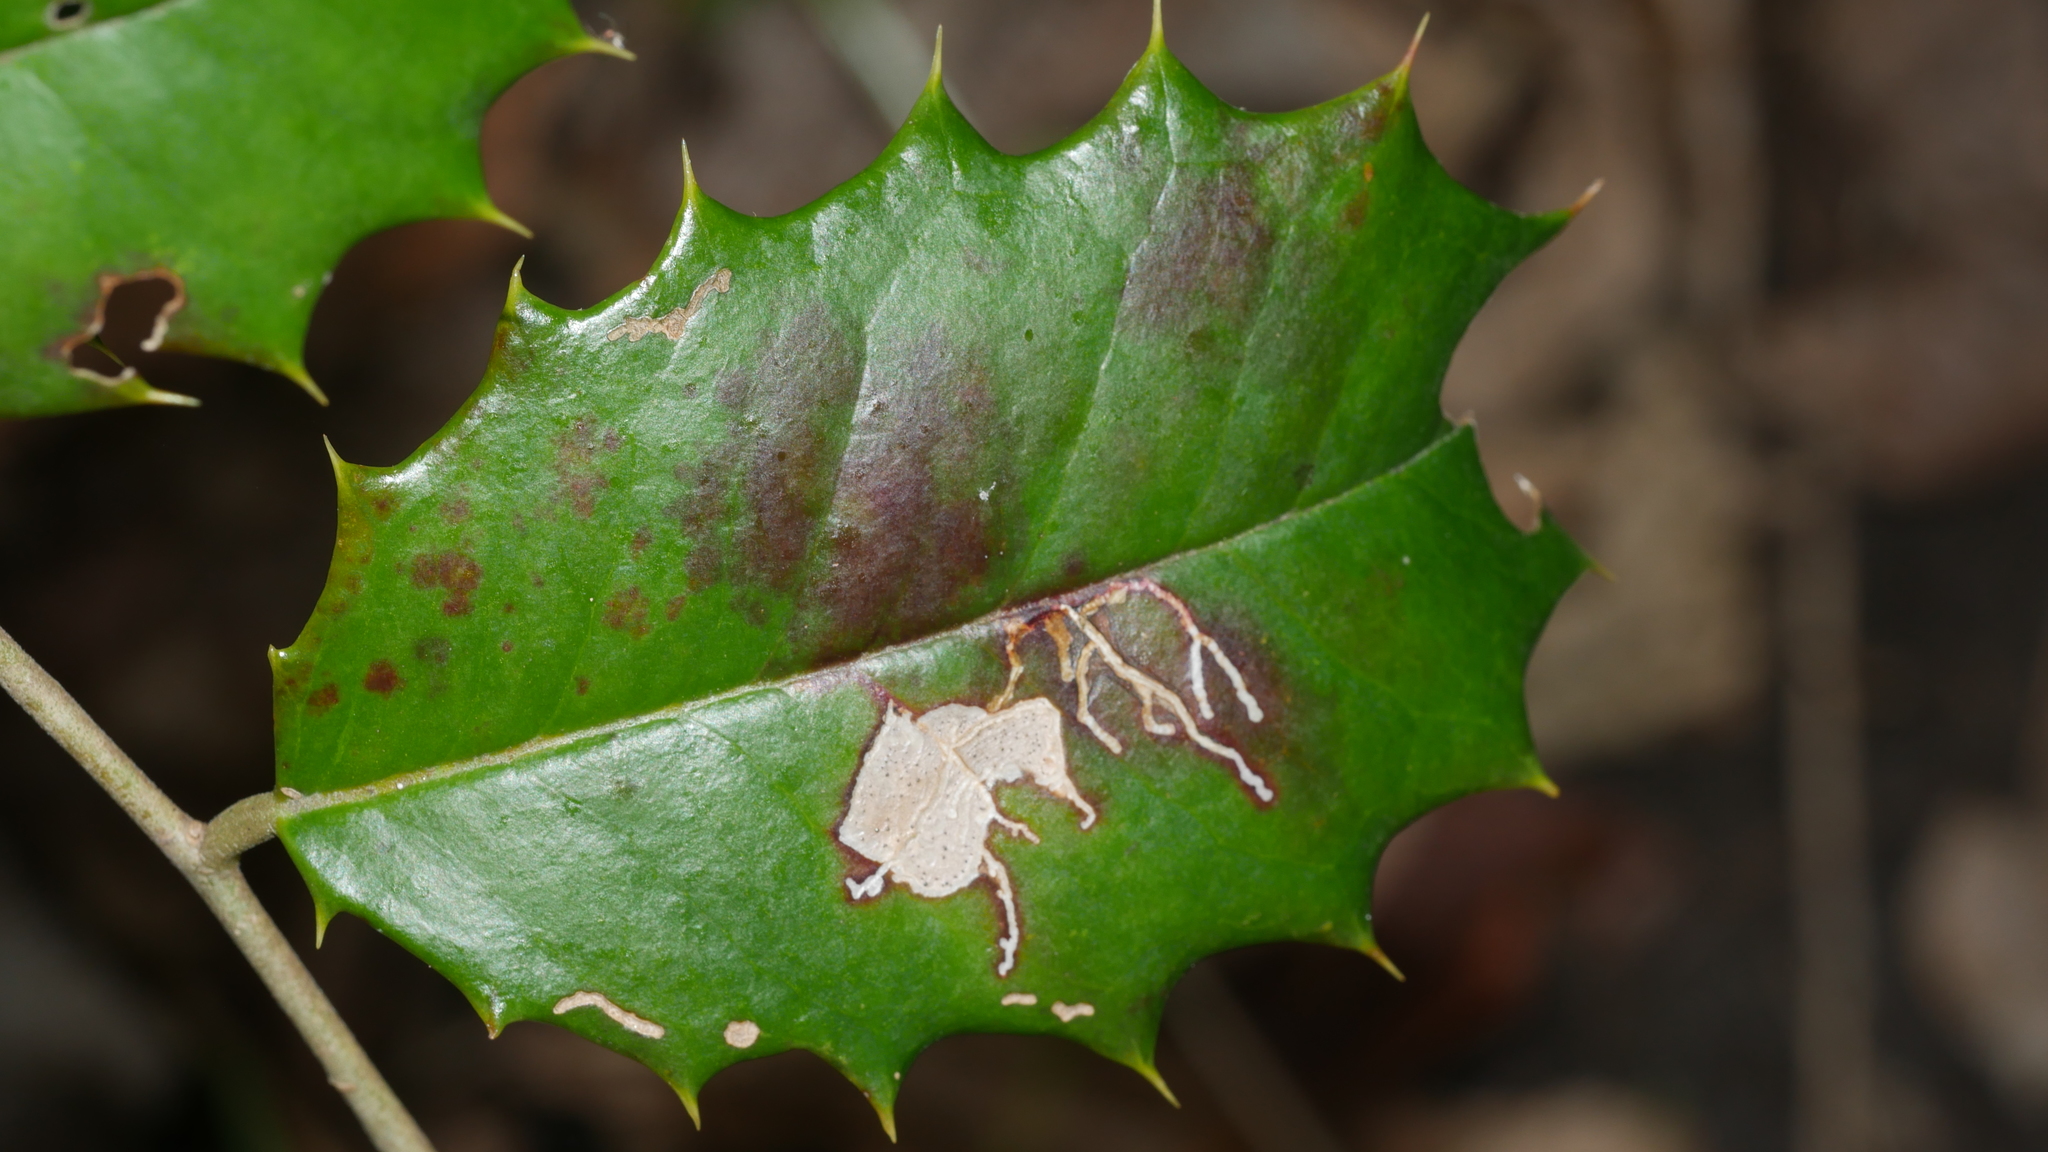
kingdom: Animalia
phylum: Arthropoda
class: Insecta
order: Lepidoptera
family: Tortricidae
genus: Rhopobota
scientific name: Rhopobota
